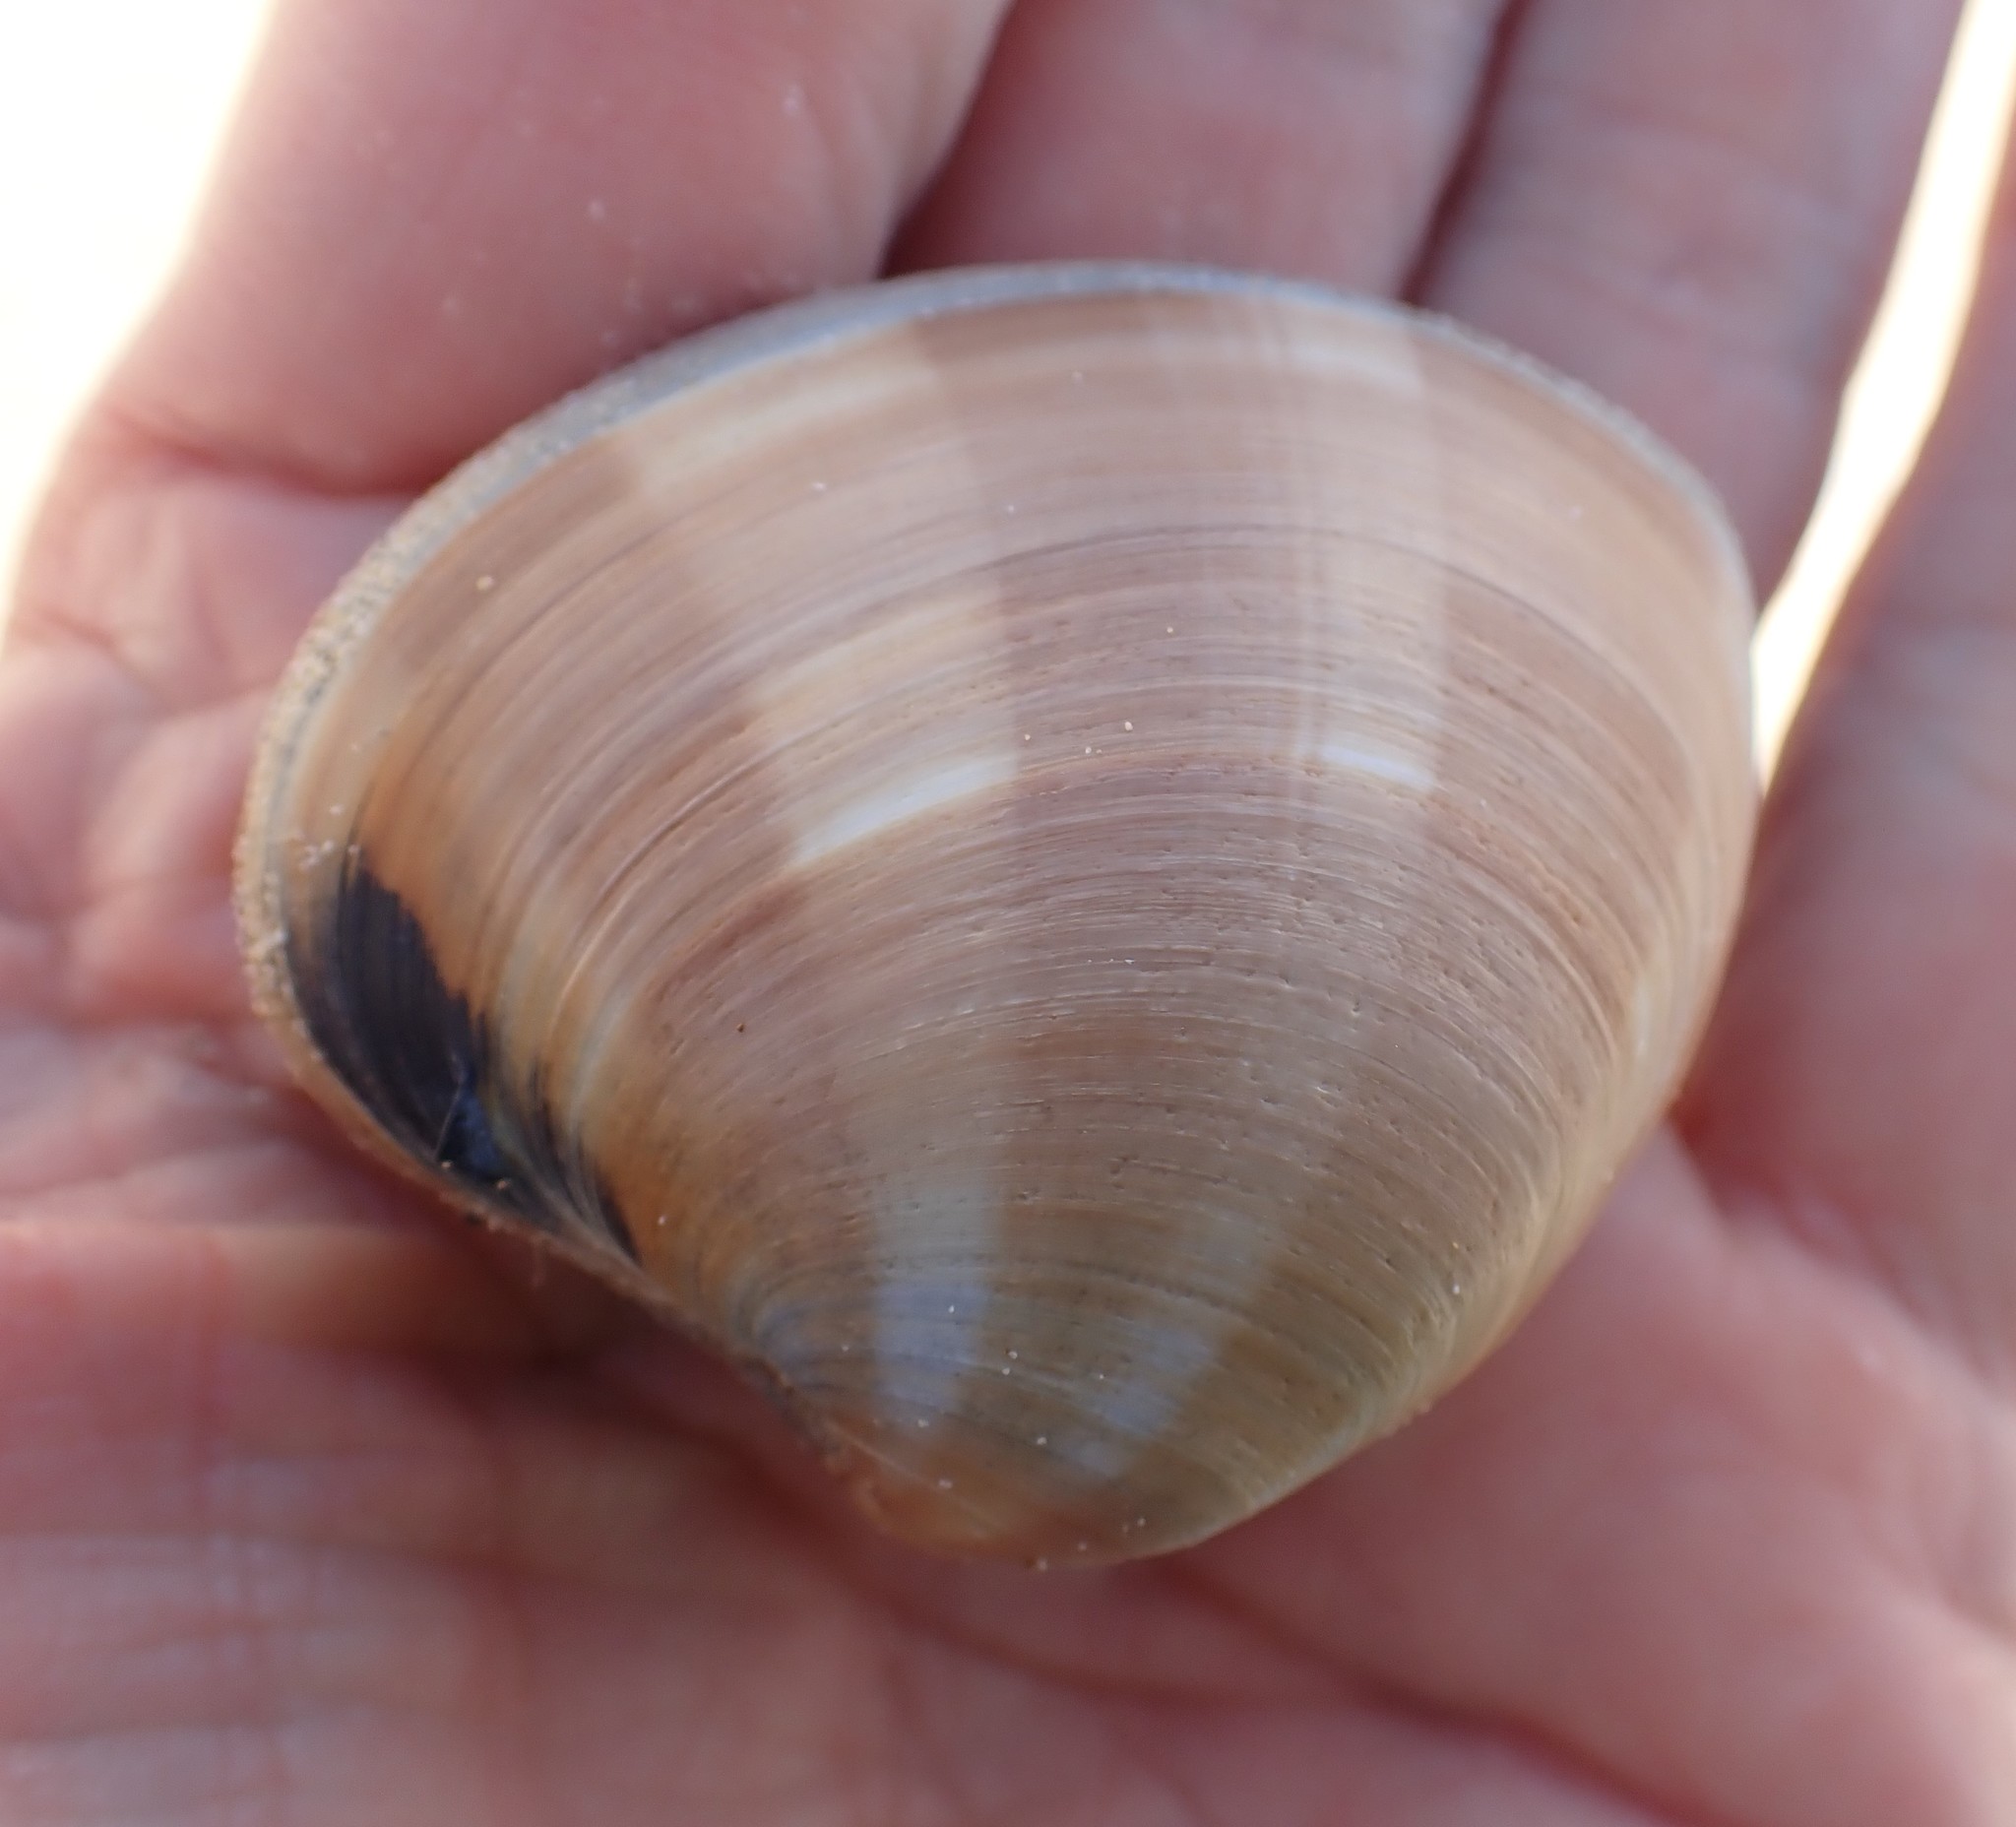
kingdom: Animalia
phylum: Mollusca
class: Bivalvia
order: Venerida
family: Veneridae
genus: Bassina
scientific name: Bassina pachyphylla
